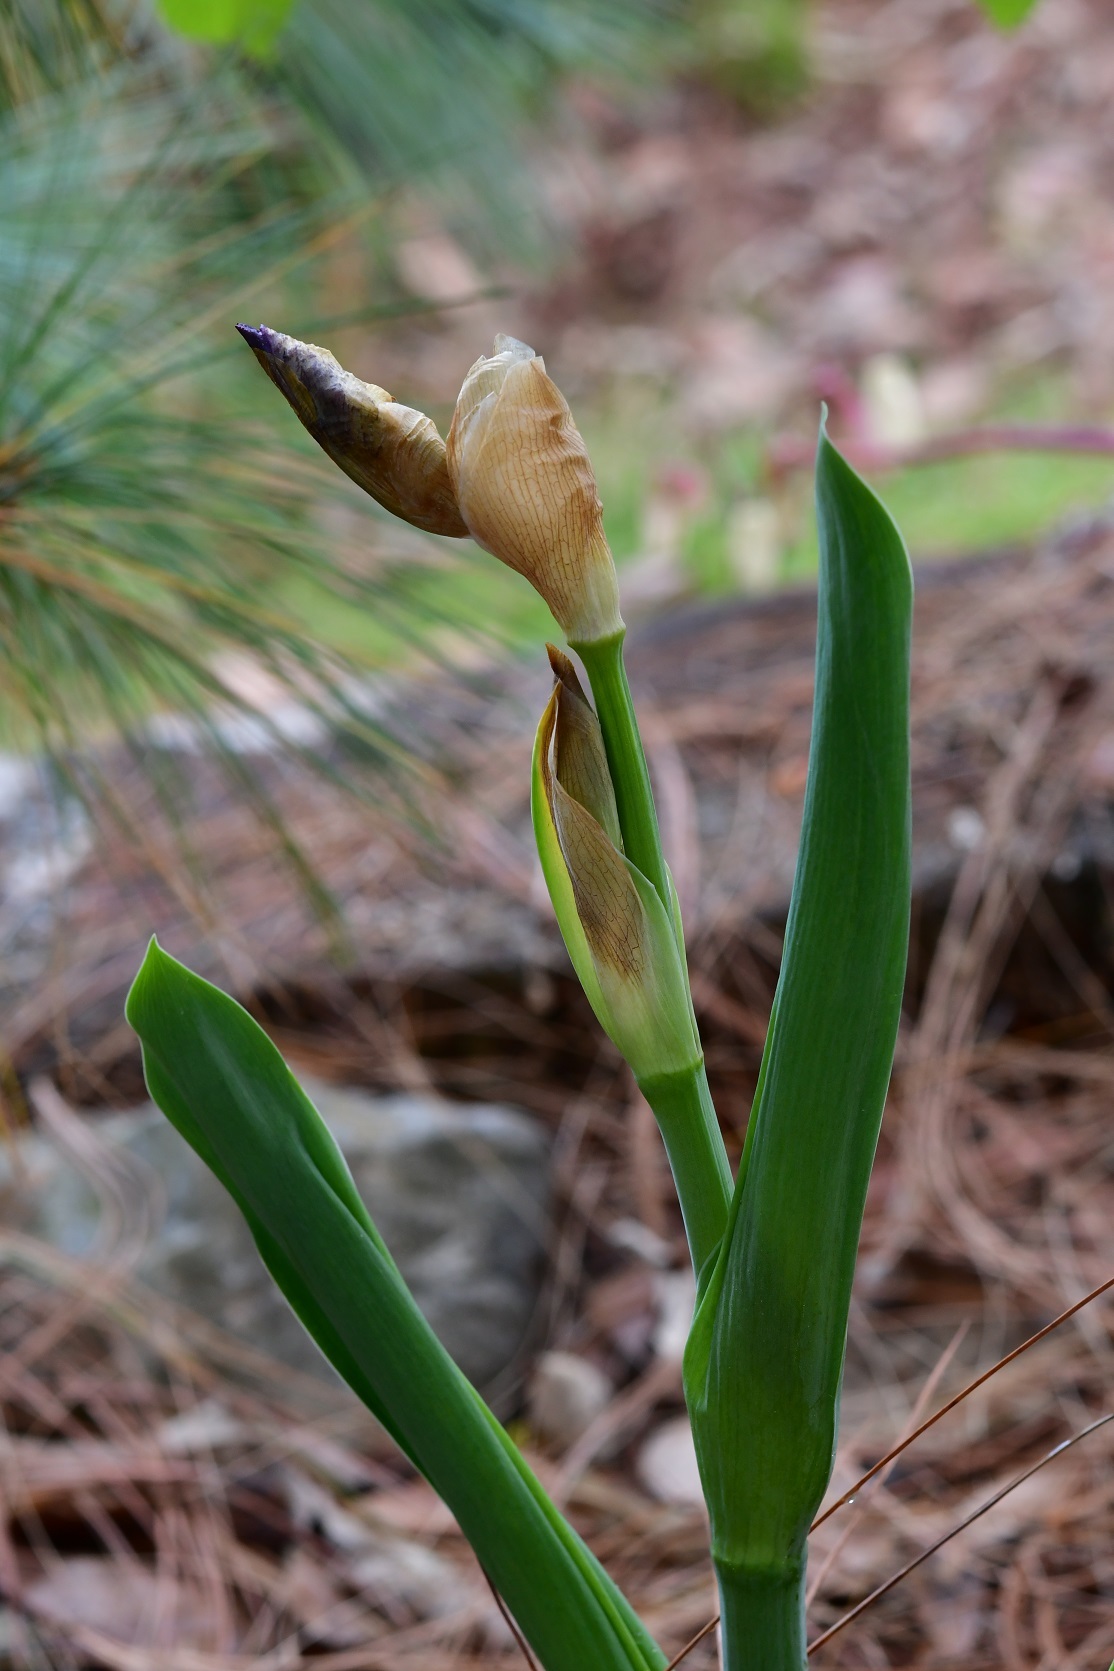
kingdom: Plantae
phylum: Tracheophyta
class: Magnoliopsida
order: Fabales
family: Fabaceae
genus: Calliandra
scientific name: Calliandra houstoniana
